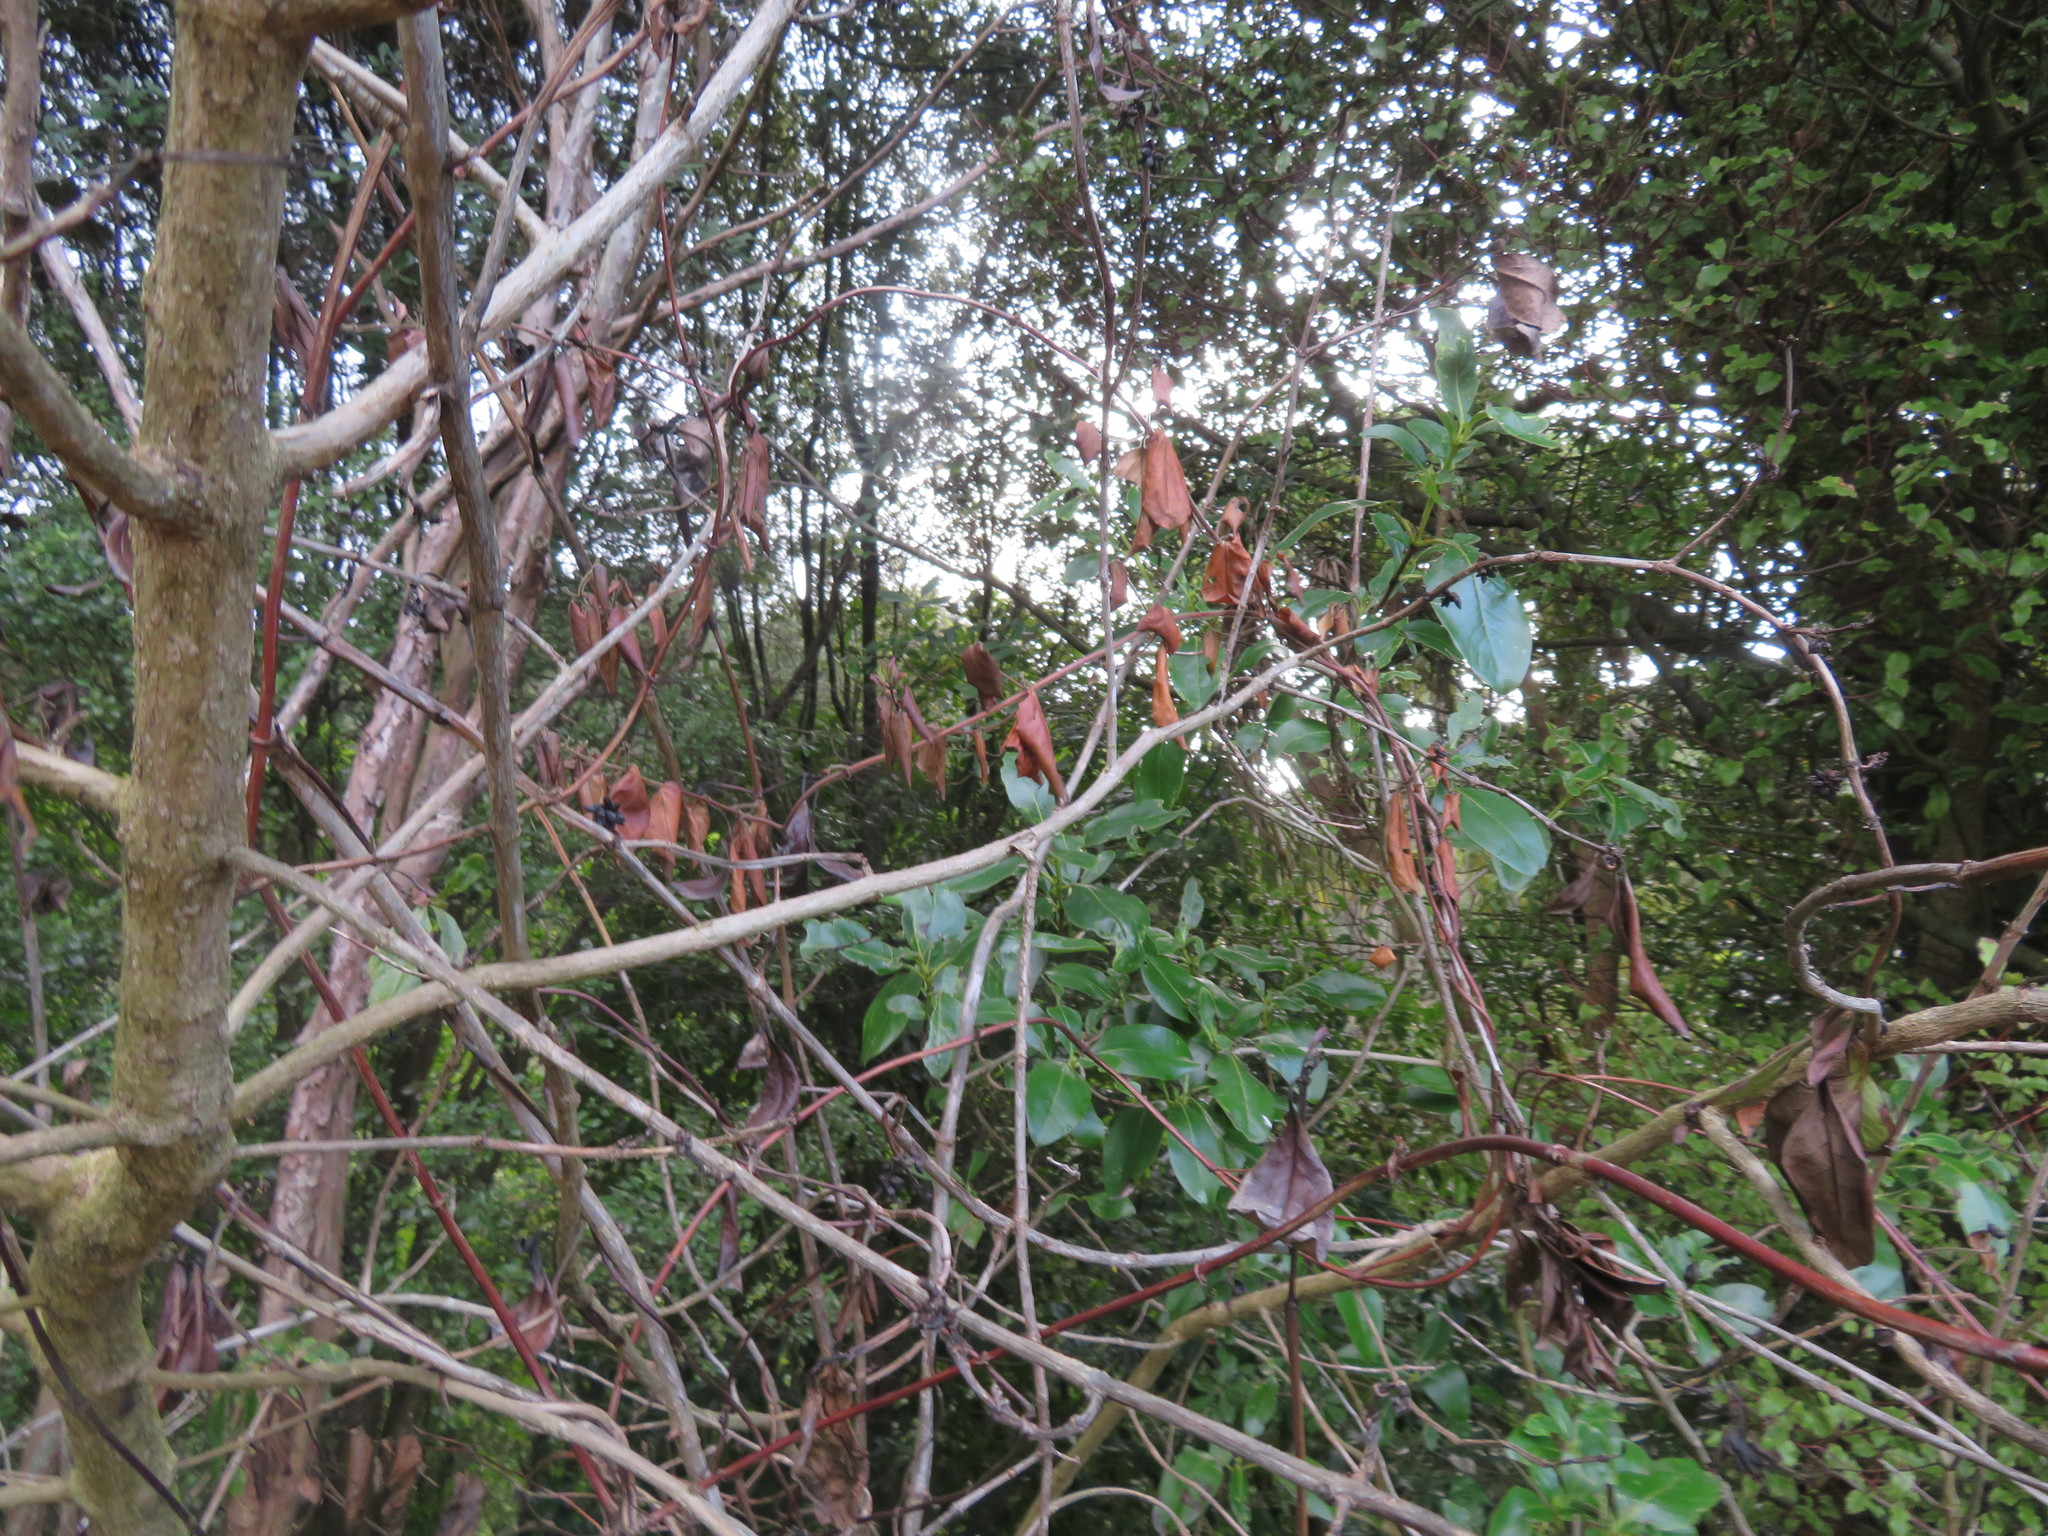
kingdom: Plantae
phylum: Tracheophyta
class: Magnoliopsida
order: Gentianales
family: Rubiaceae
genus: Coprosma
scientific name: Coprosma robusta
